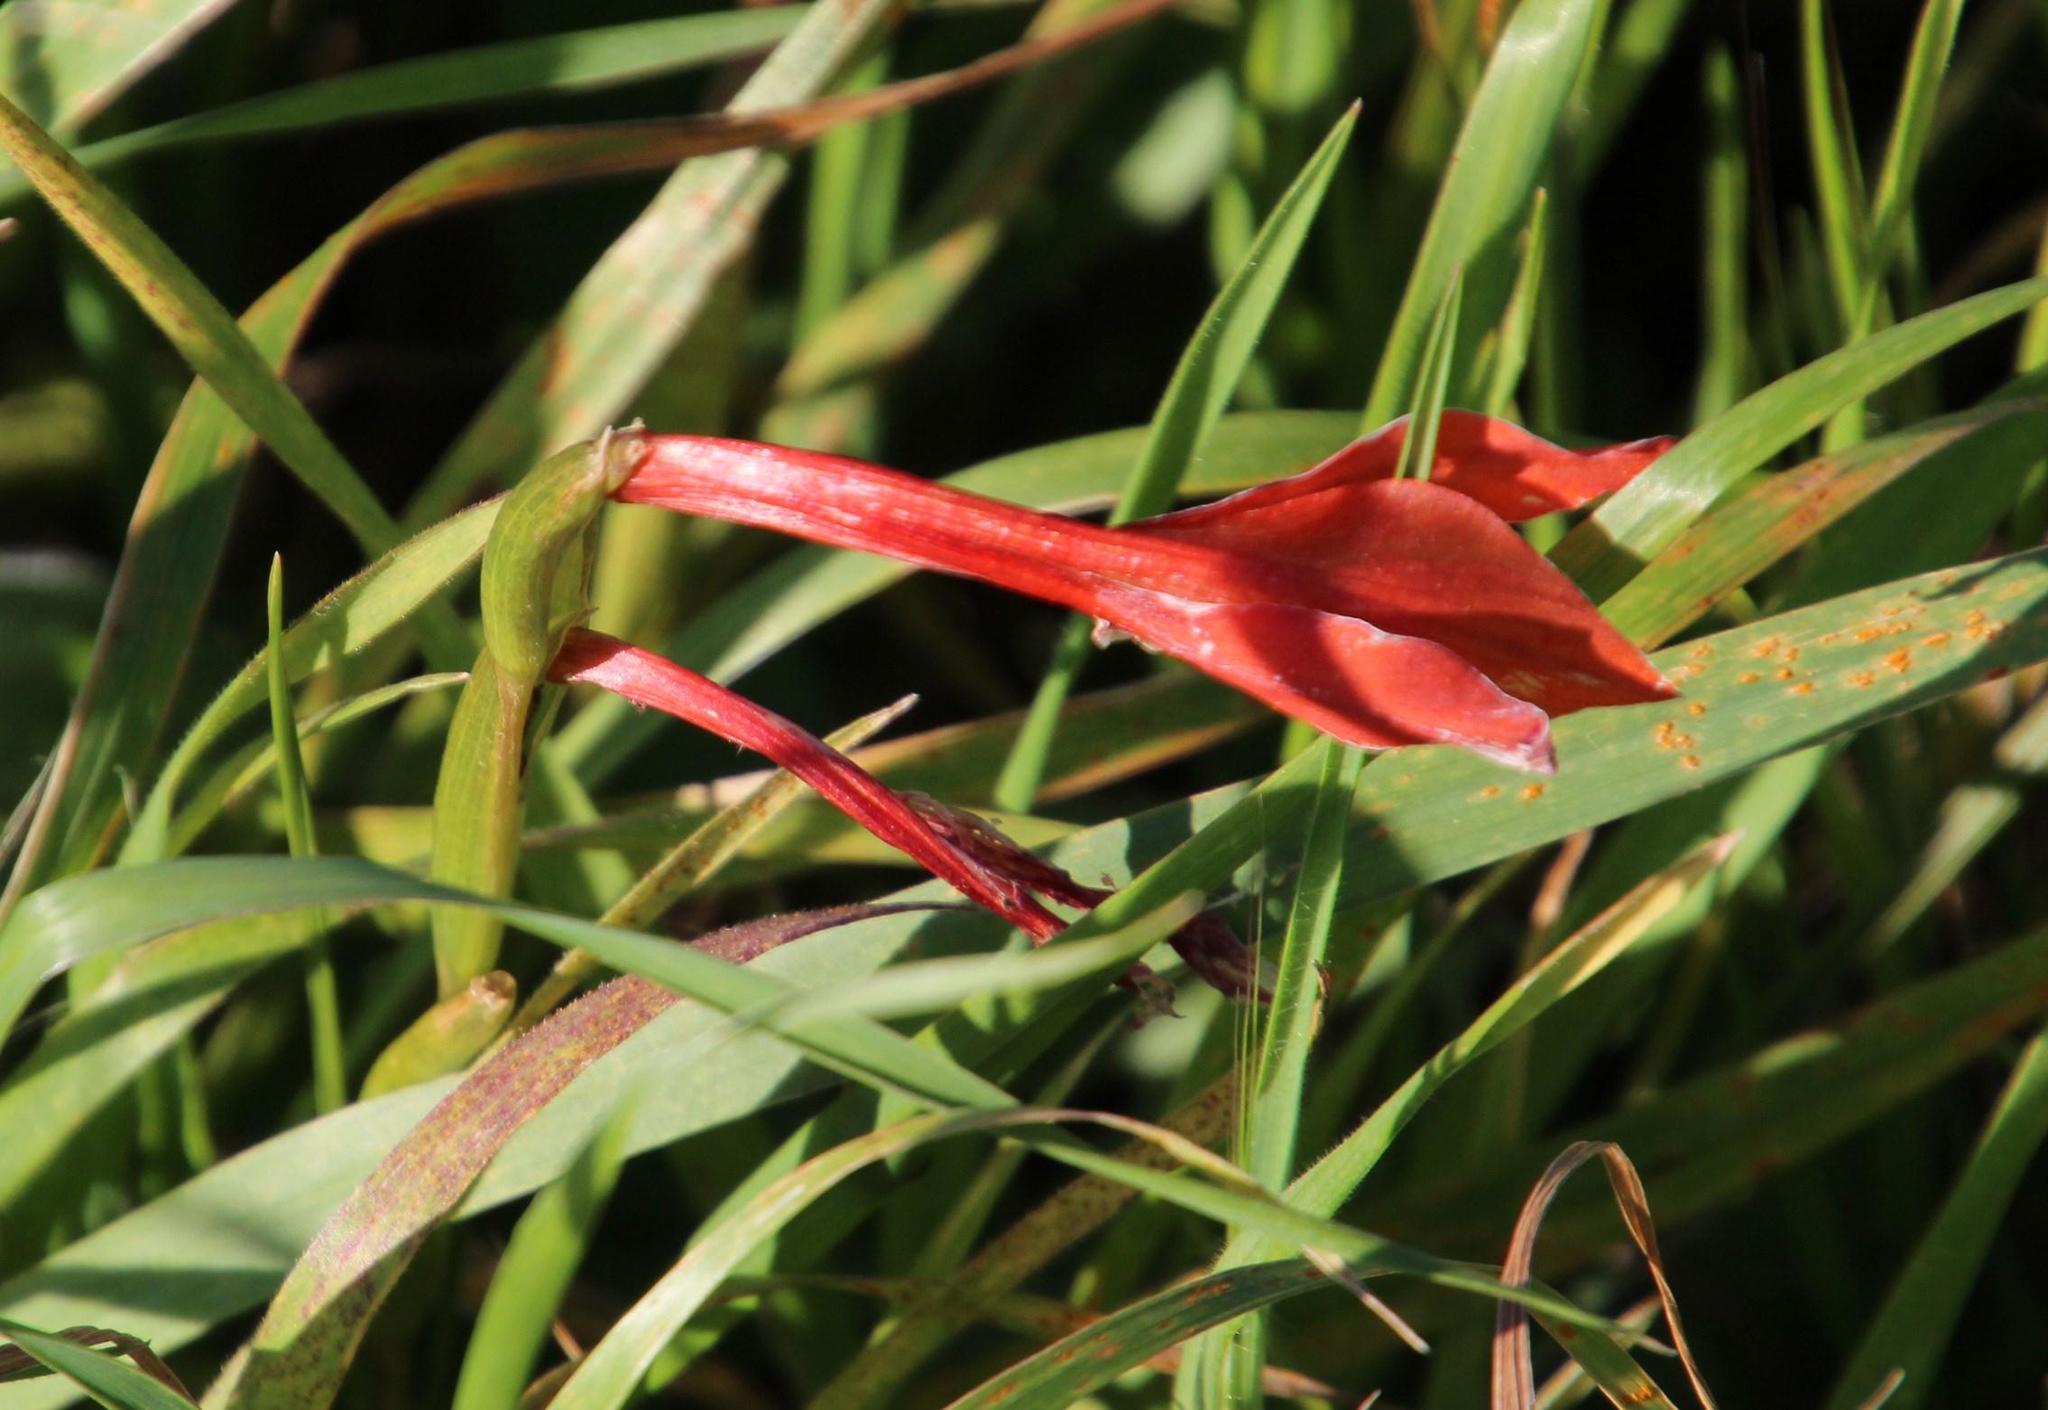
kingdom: Plantae
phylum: Tracheophyta
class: Liliopsida
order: Asparagales
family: Iridaceae
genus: Gladiolus
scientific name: Gladiolus watsonius
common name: Red afrikaner
